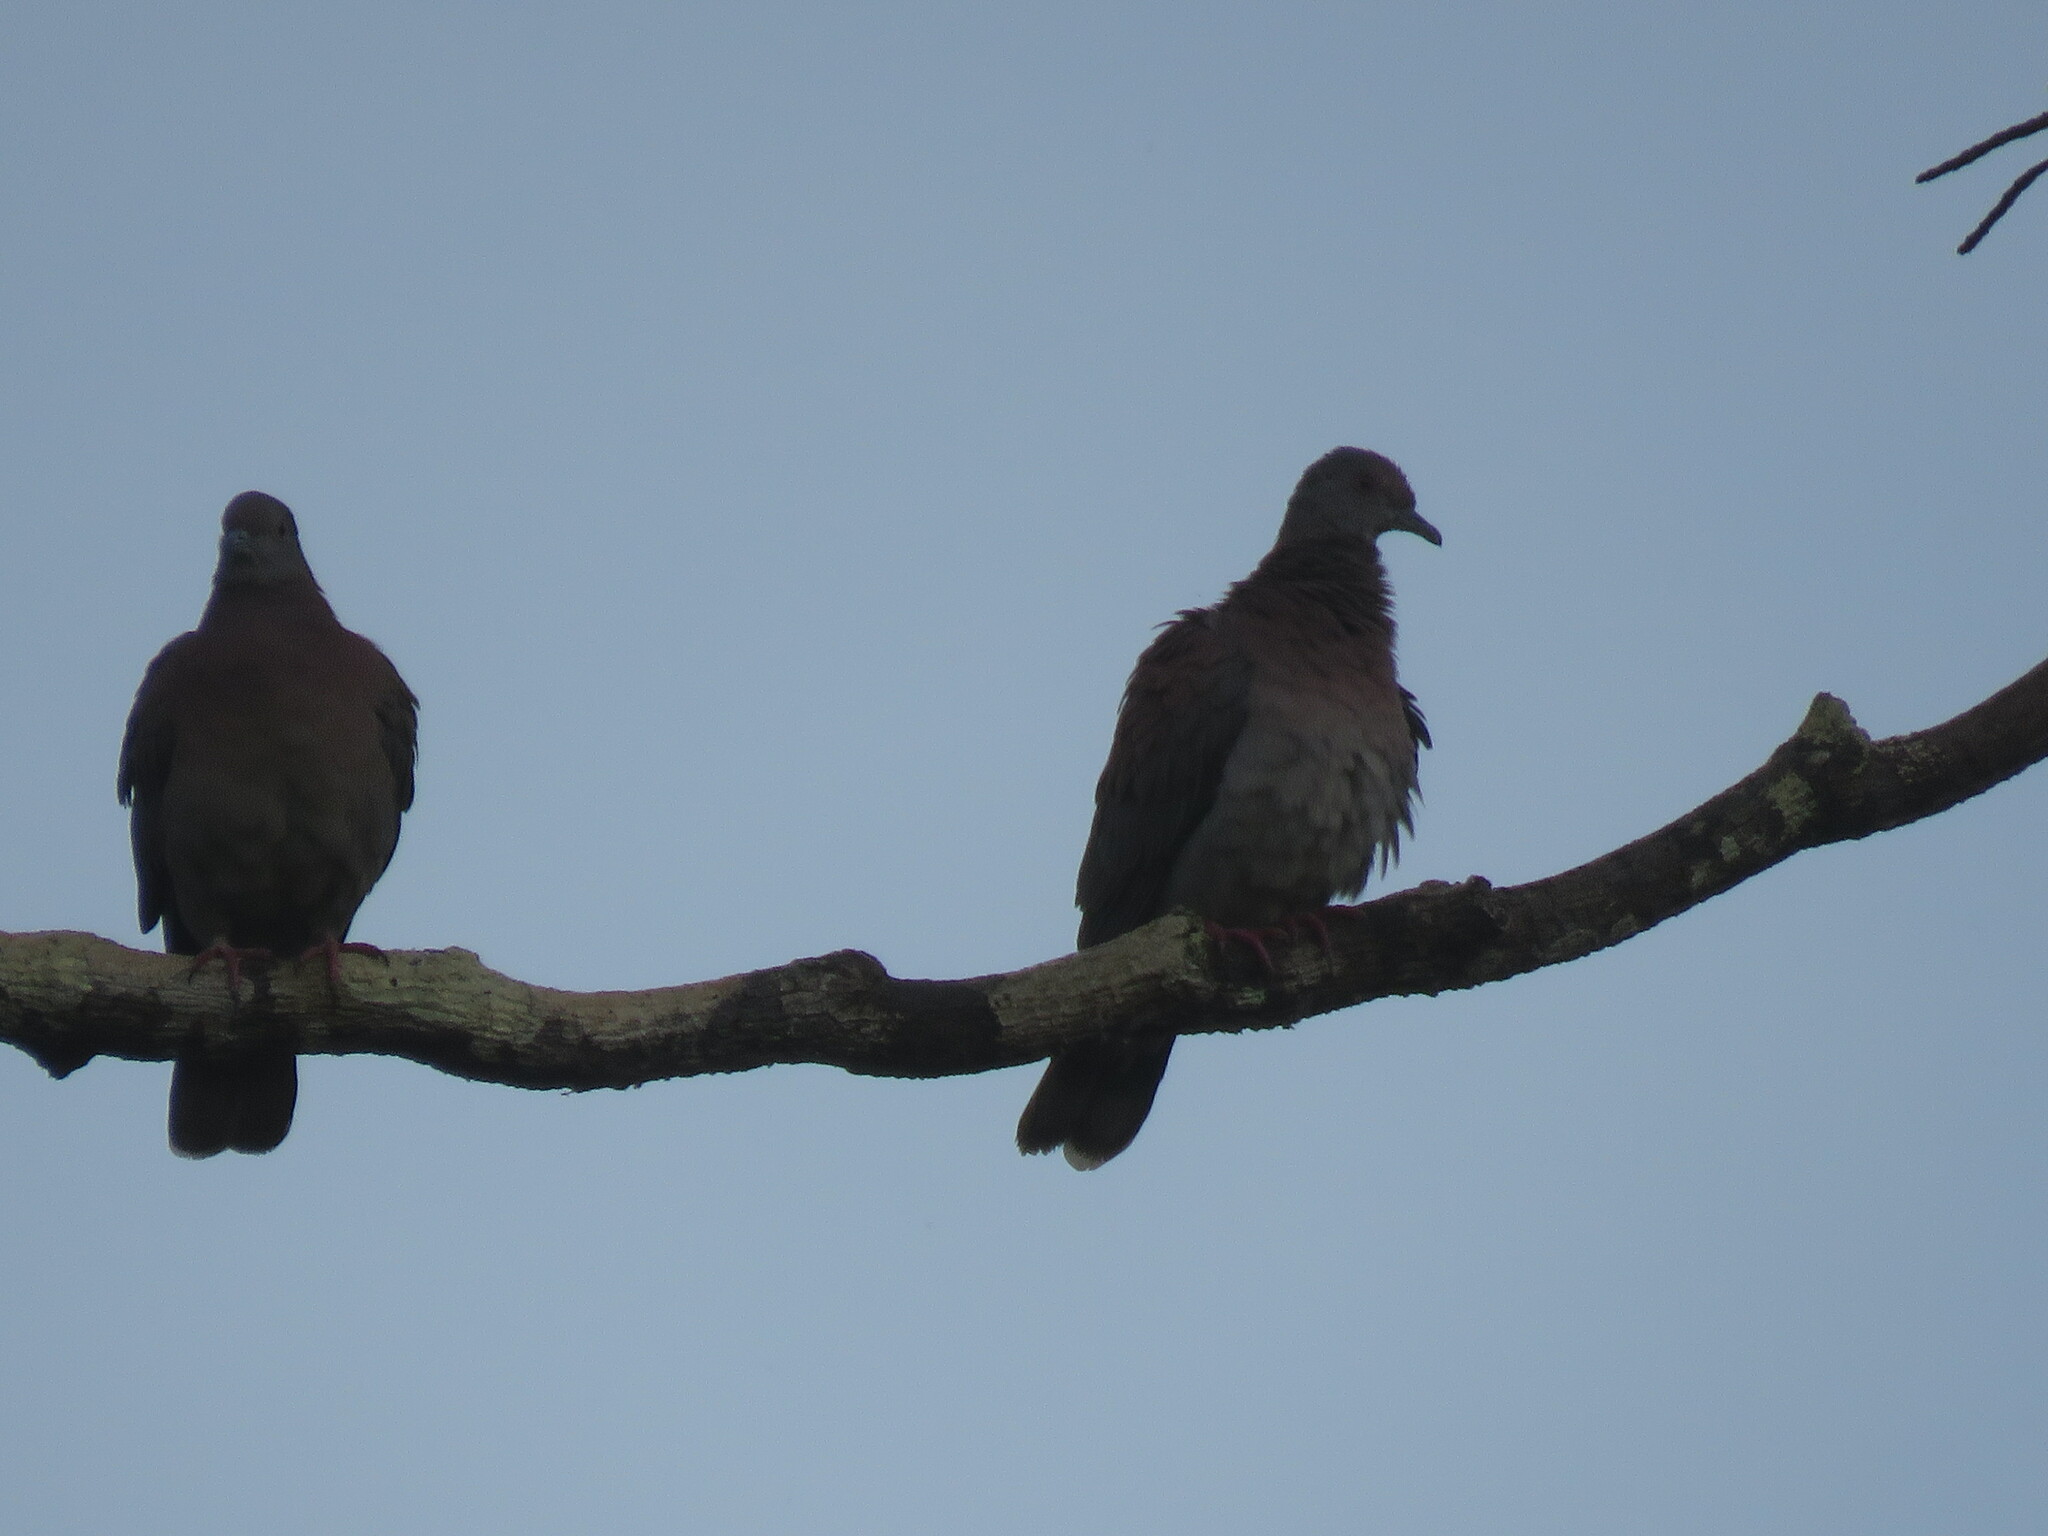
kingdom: Animalia
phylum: Chordata
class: Aves
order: Columbiformes
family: Columbidae
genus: Patagioenas
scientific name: Patagioenas cayennensis
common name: Pale-vented pigeon
